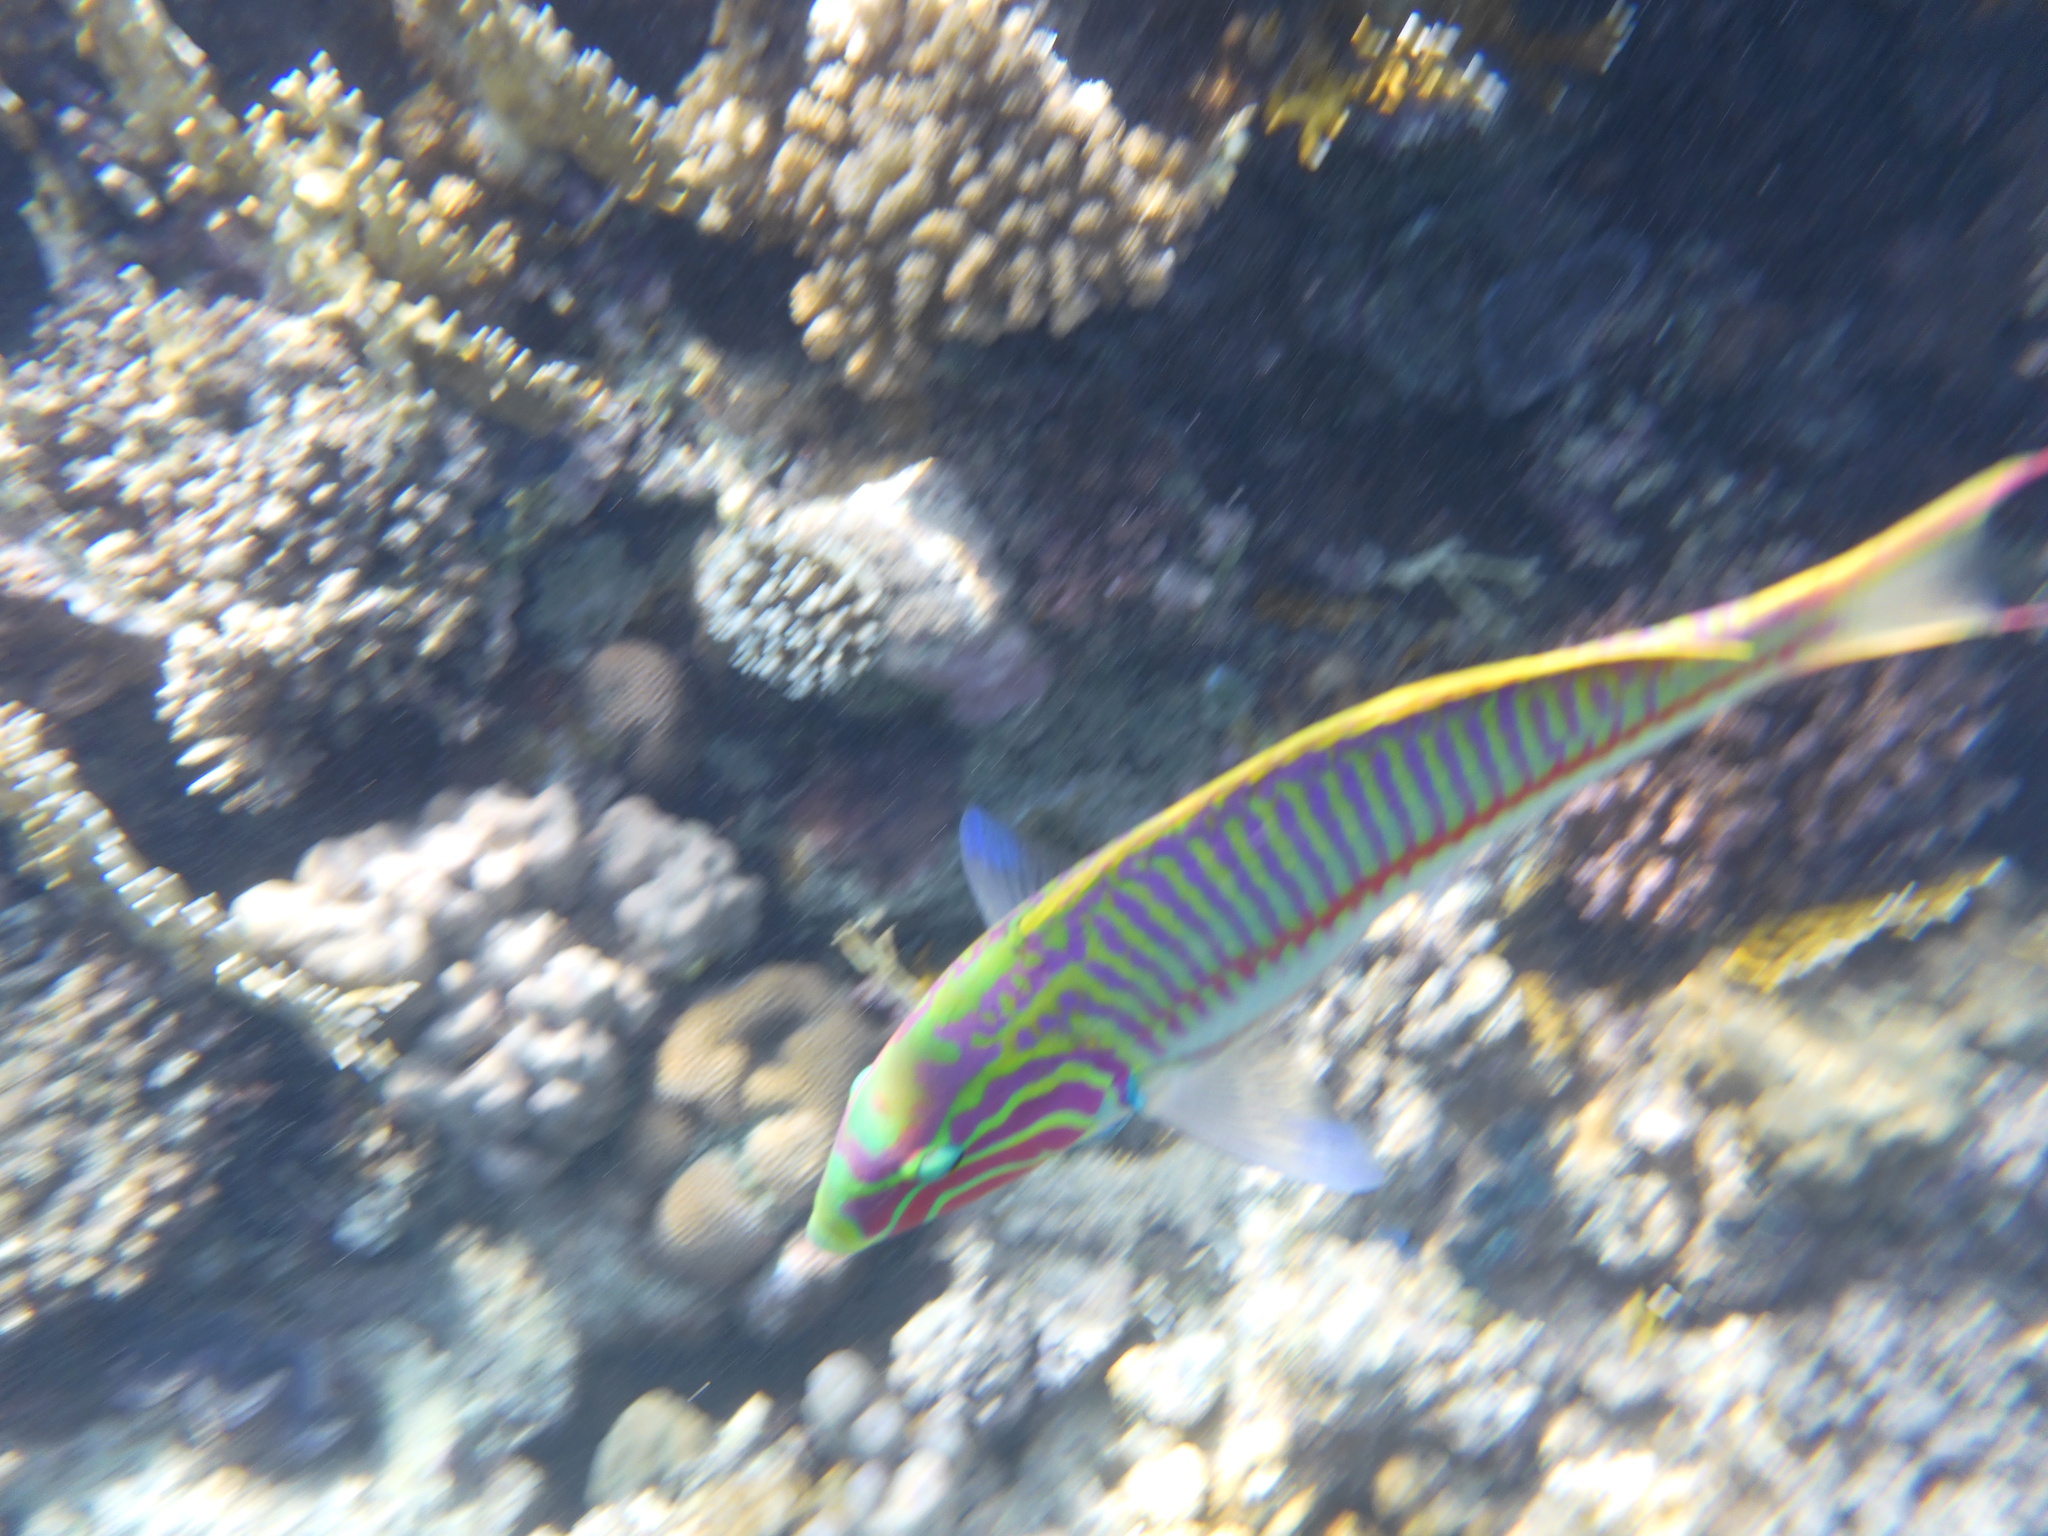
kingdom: Animalia
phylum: Chordata
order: Perciformes
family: Labridae
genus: Thalassoma
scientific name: Thalassoma rueppellii
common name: Klunzinger's wrasse
